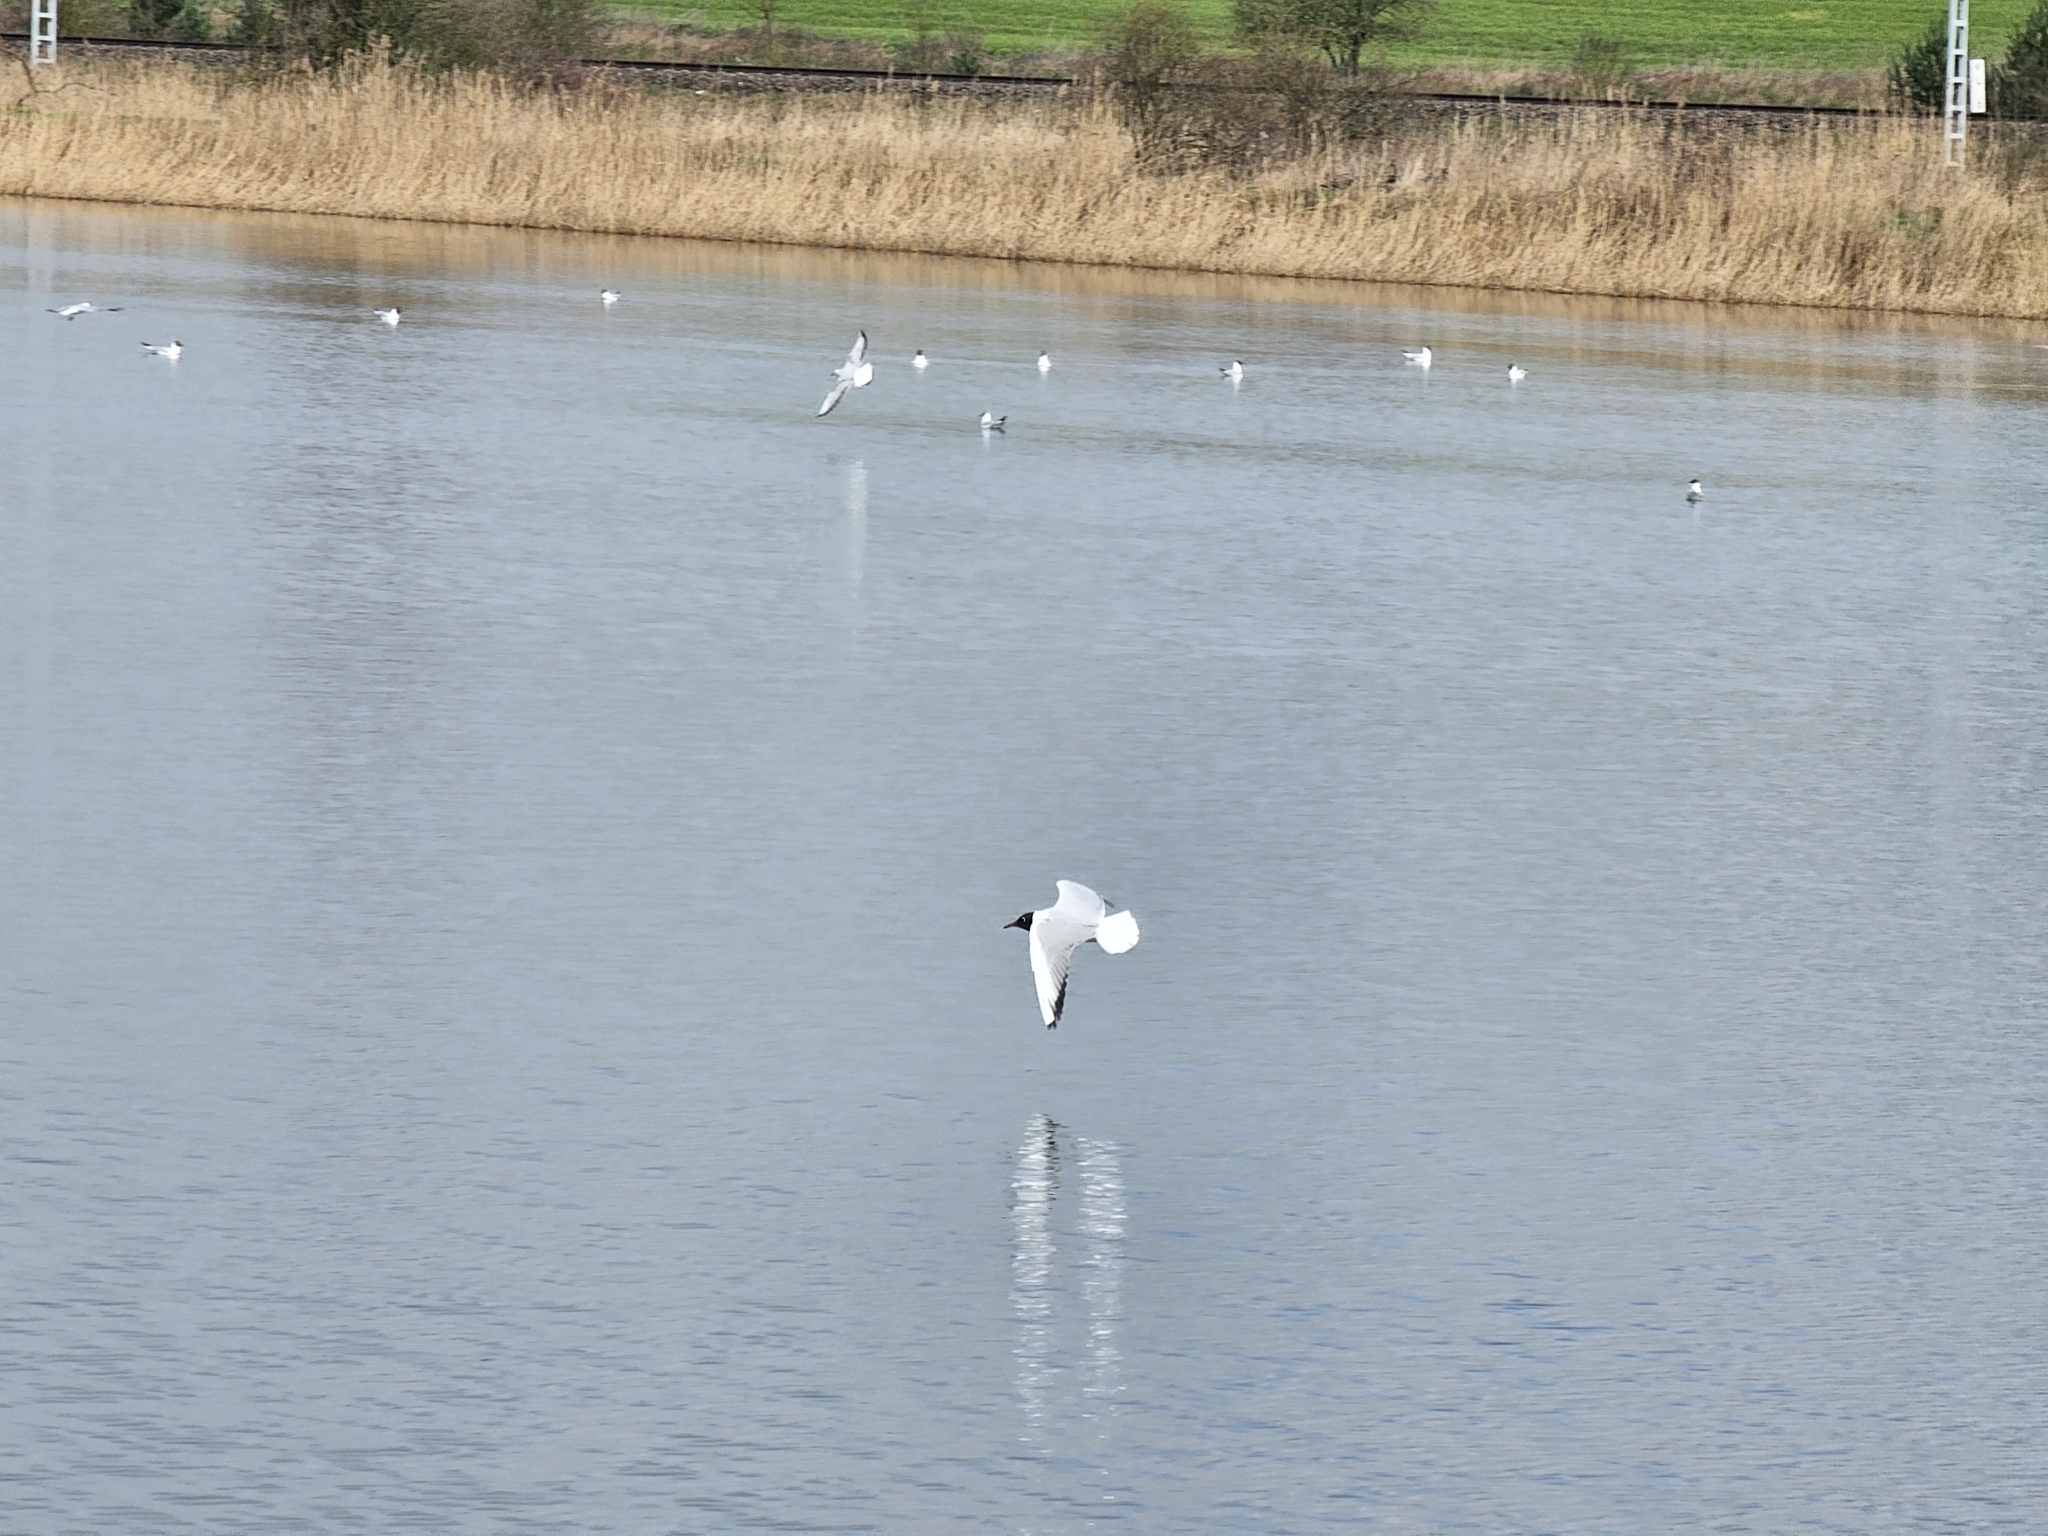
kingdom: Animalia
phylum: Chordata
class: Aves
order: Charadriiformes
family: Laridae
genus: Chroicocephalus
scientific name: Chroicocephalus ridibundus
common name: Black-headed gull
